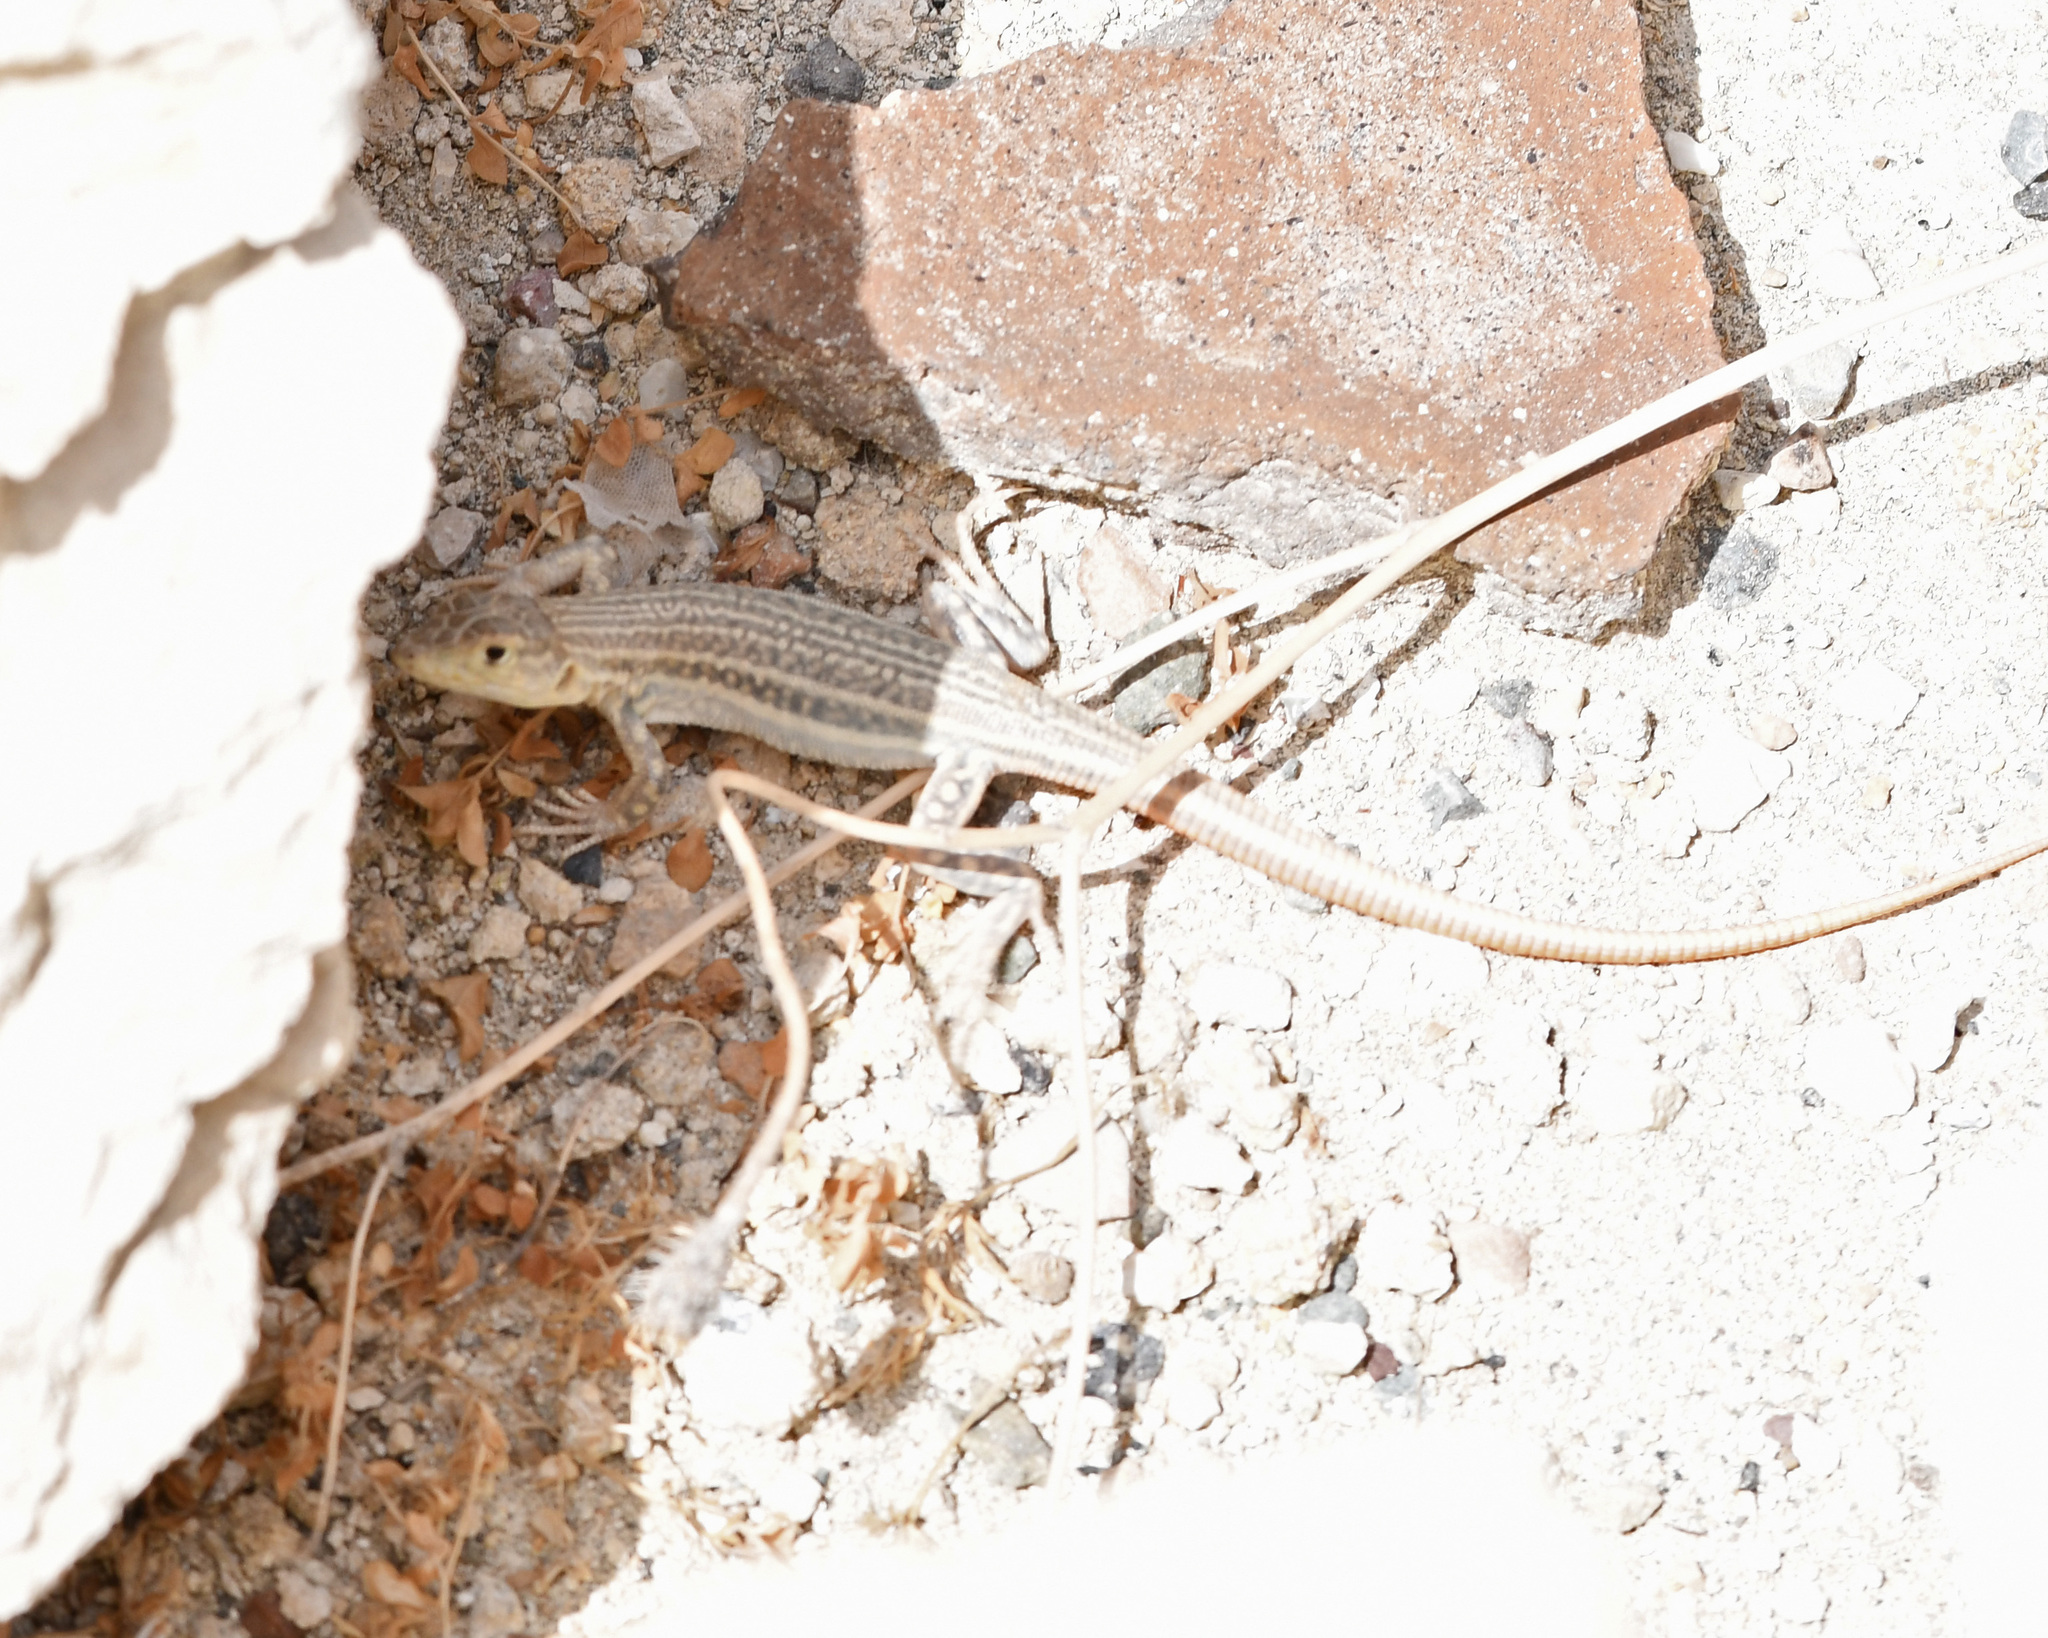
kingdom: Animalia
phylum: Chordata
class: Squamata
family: Lacertidae
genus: Acanthodactylus
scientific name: Acanthodactylus schreiberi
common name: Schreiber's fringe-fingered lizard
